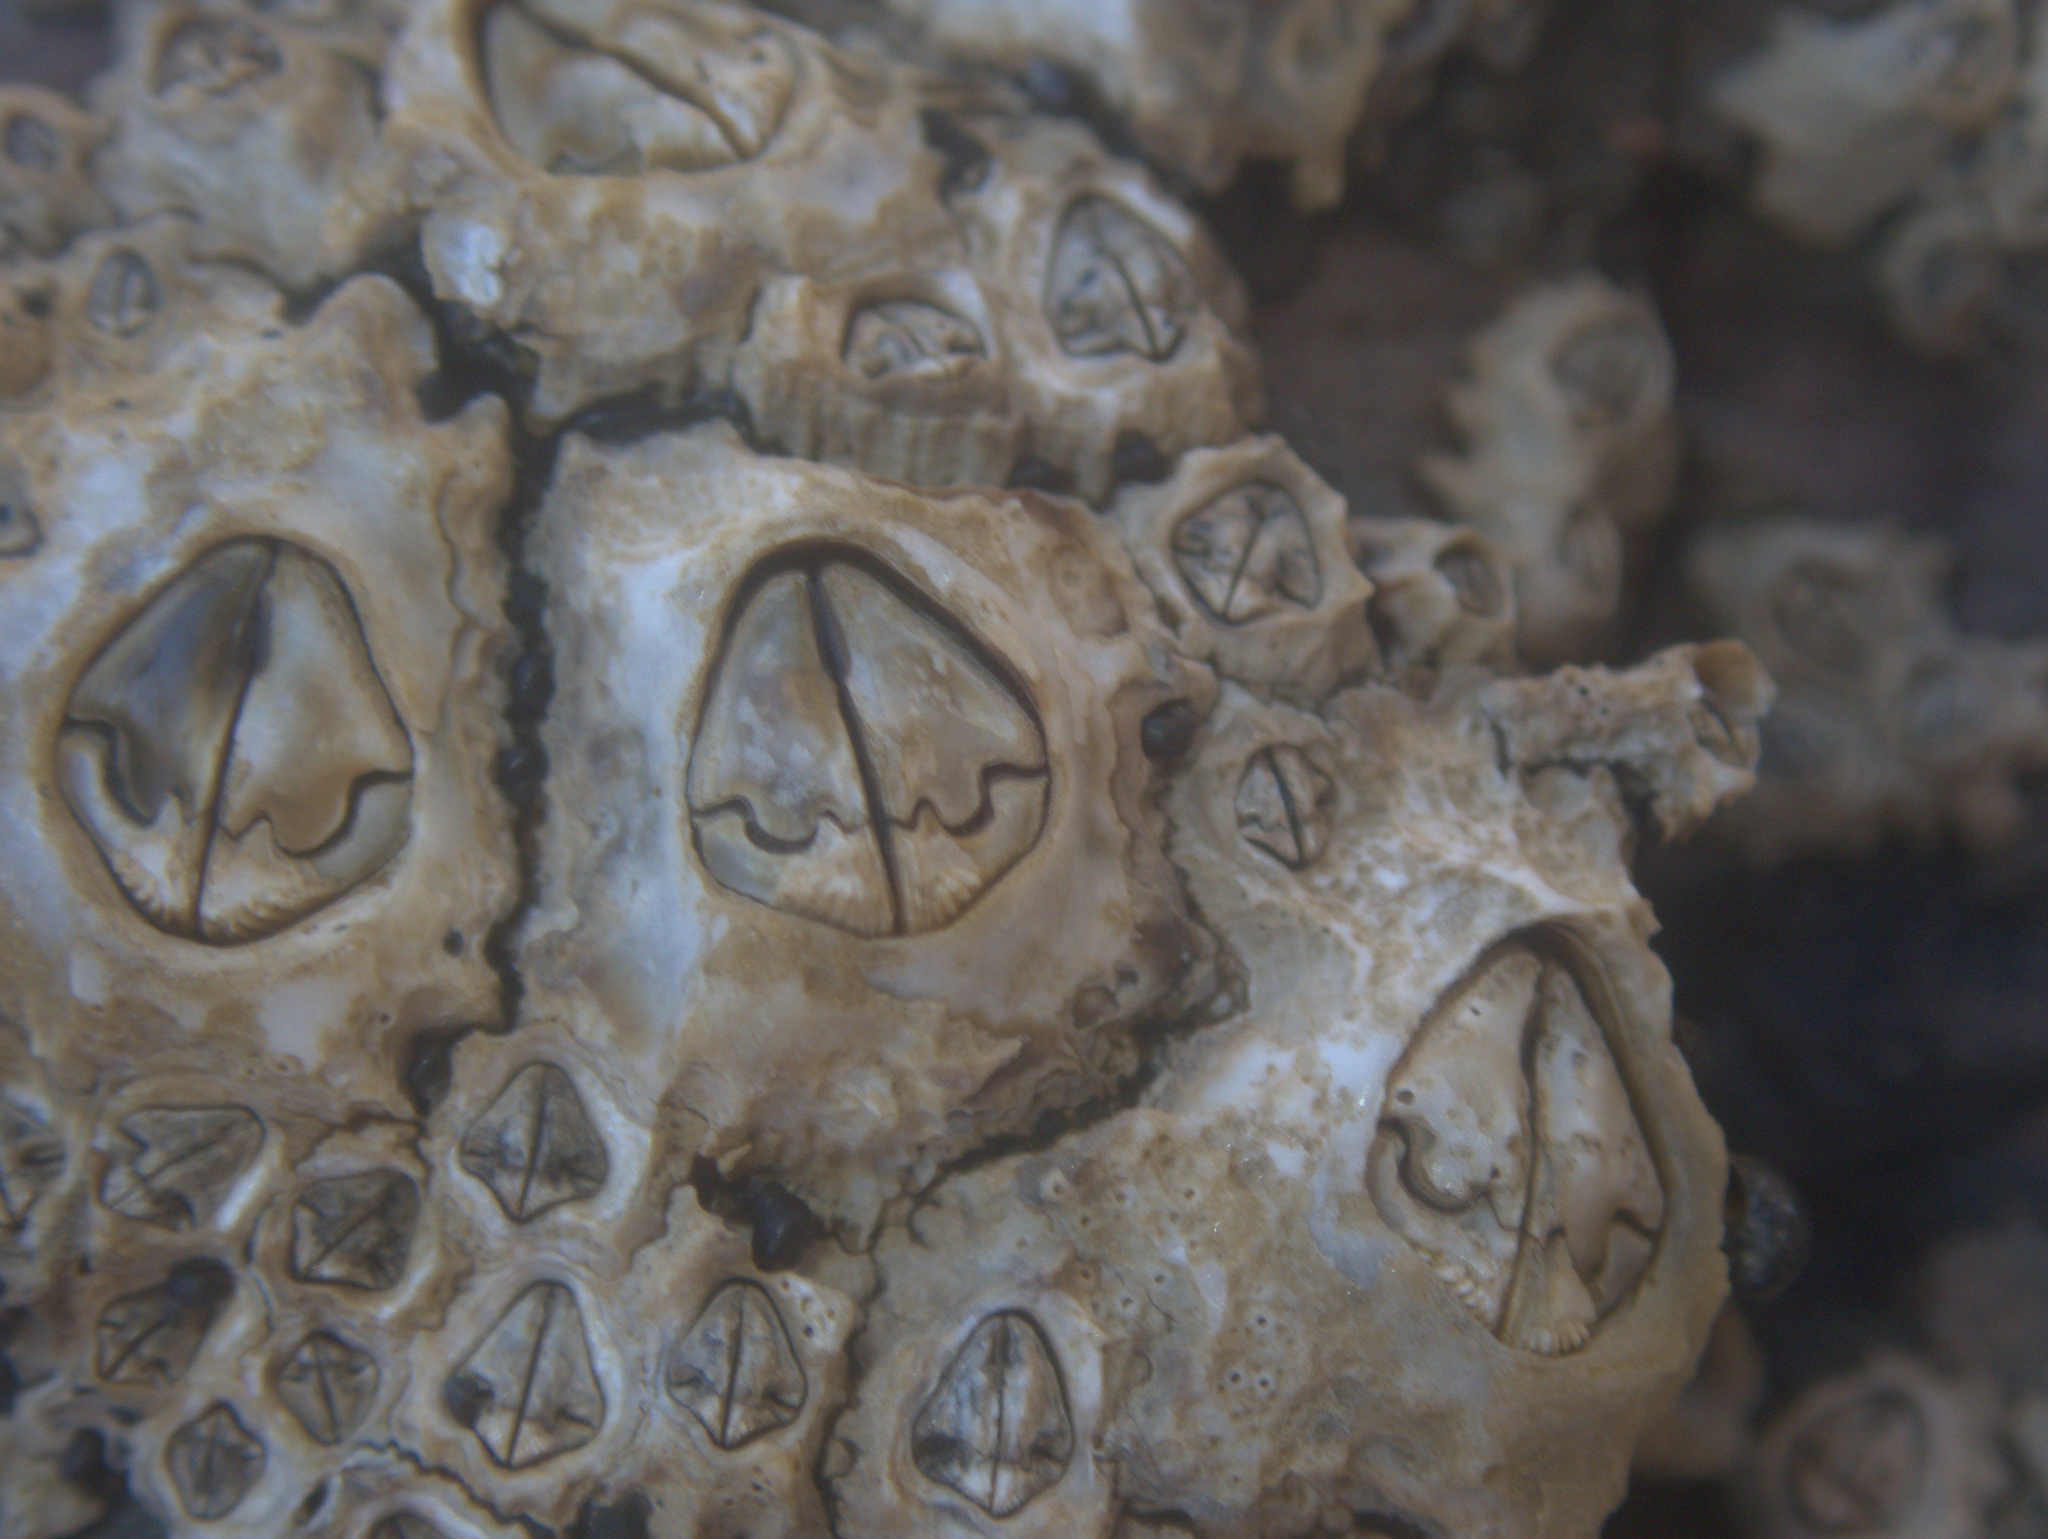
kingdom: Animalia
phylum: Arthropoda
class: Maxillopoda
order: Sessilia
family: Chthamalidae
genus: Chamaesipho
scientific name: Chamaesipho brunnea
